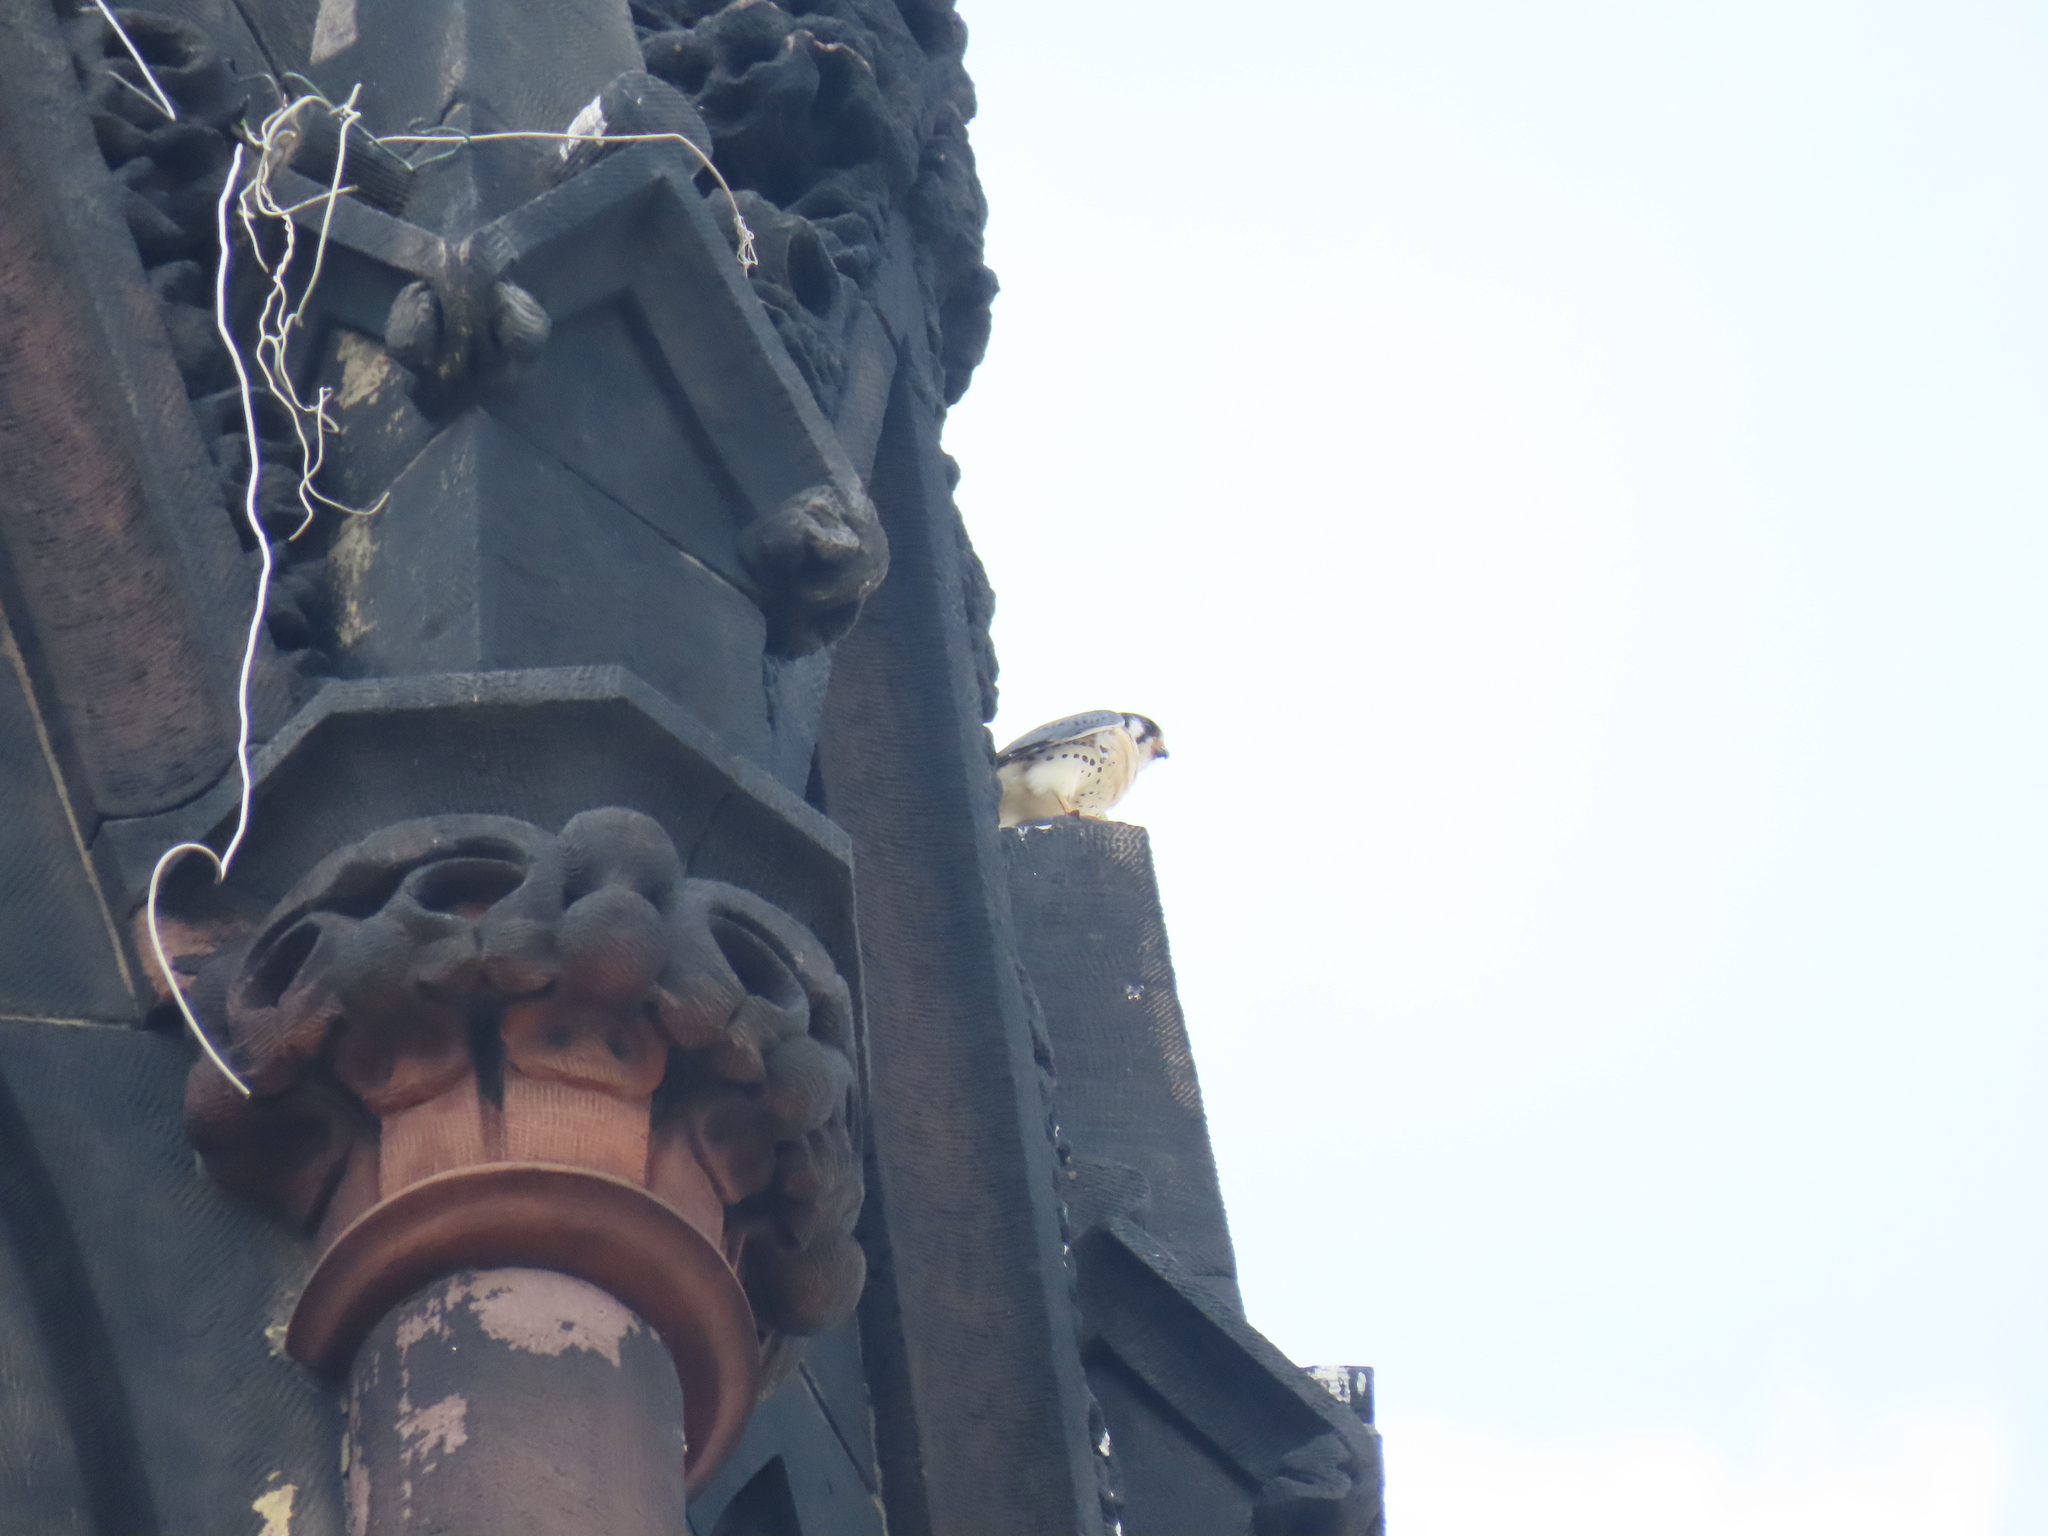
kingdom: Animalia
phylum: Chordata
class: Aves
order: Falconiformes
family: Falconidae
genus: Falco
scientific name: Falco sparverius
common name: American kestrel
